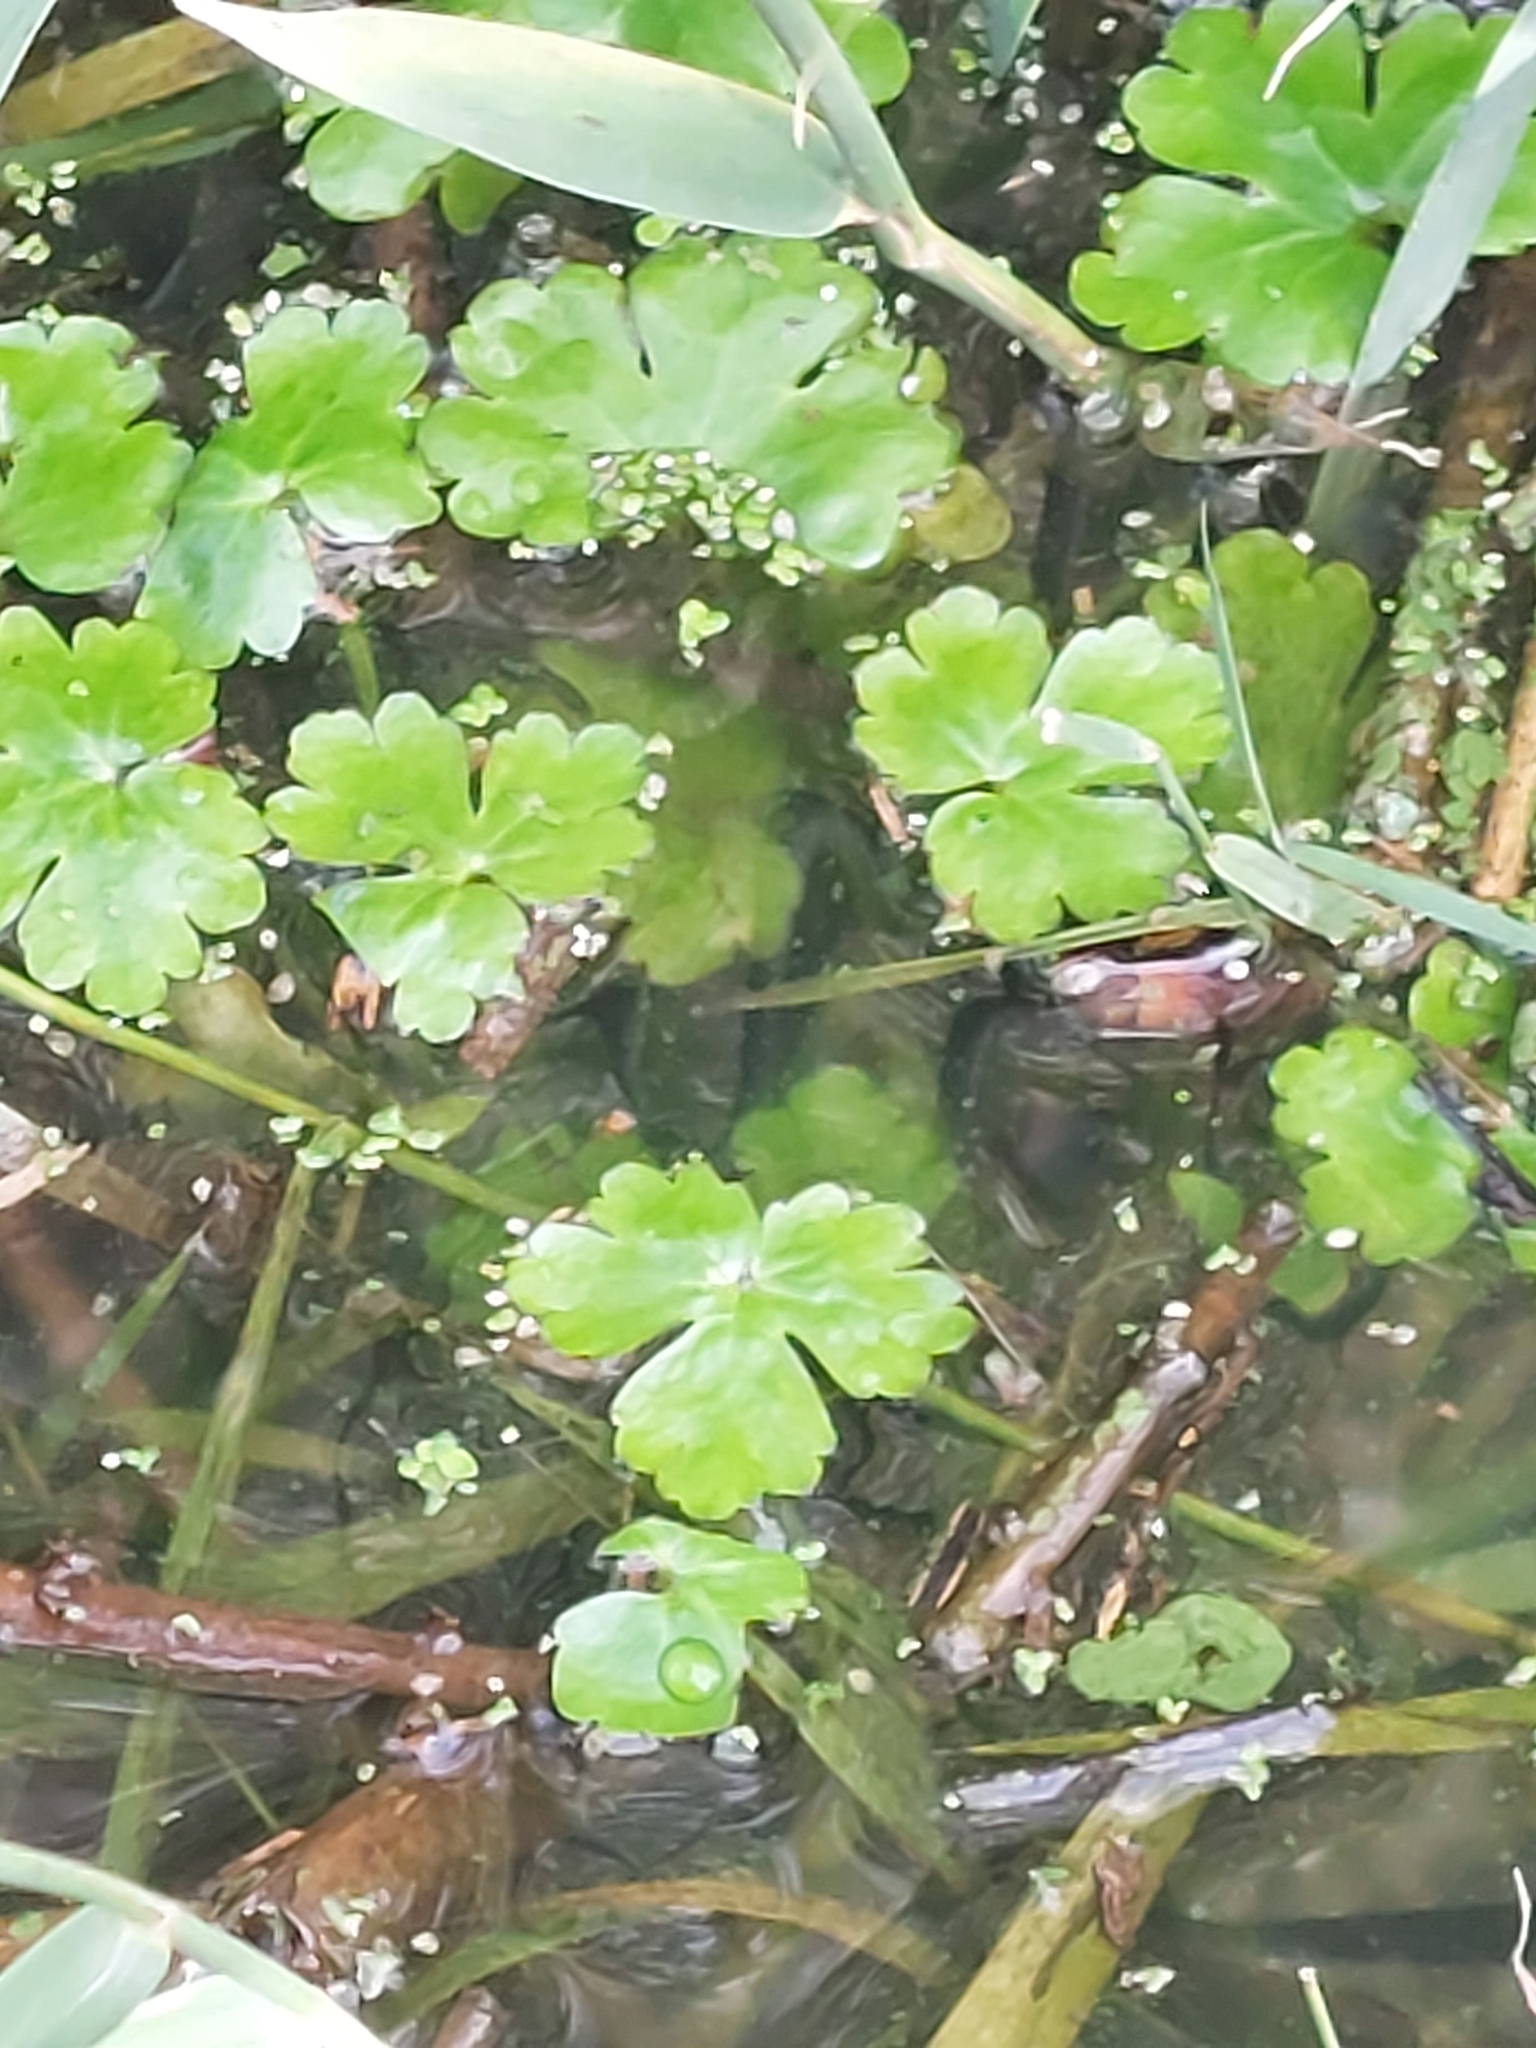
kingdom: Plantae
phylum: Tracheophyta
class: Magnoliopsida
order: Ranunculales
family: Ranunculaceae
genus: Ranunculus
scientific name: Ranunculus sceleratus
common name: Celery-leaved buttercup
